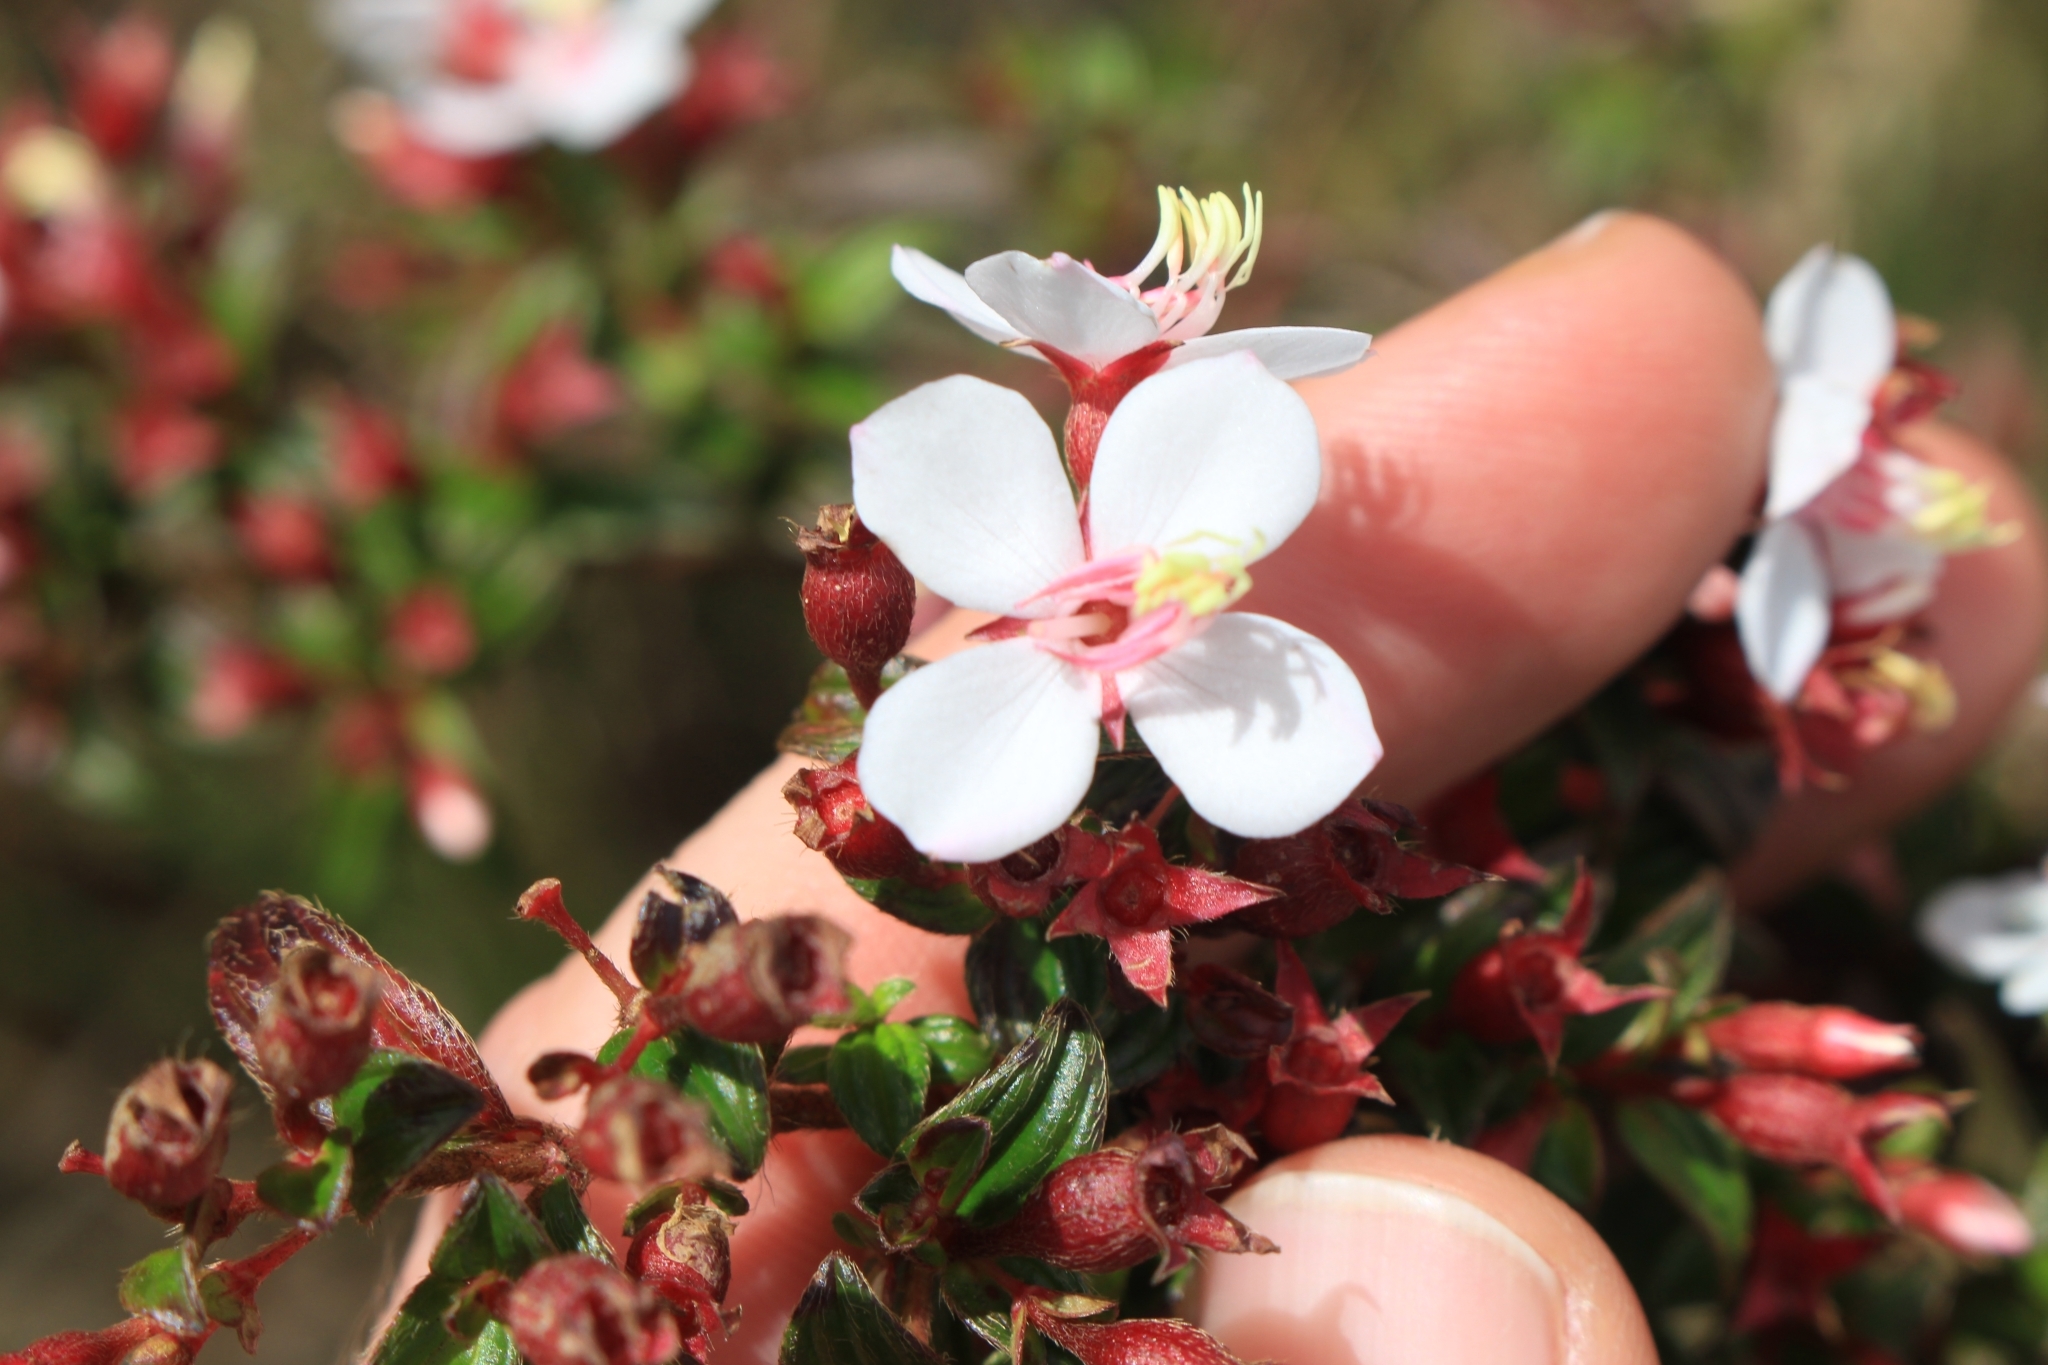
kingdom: Plantae
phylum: Tracheophyta
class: Magnoliopsida
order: Myrtales
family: Melastomataceae
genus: Monochaetum
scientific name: Monochaetum floribundum
